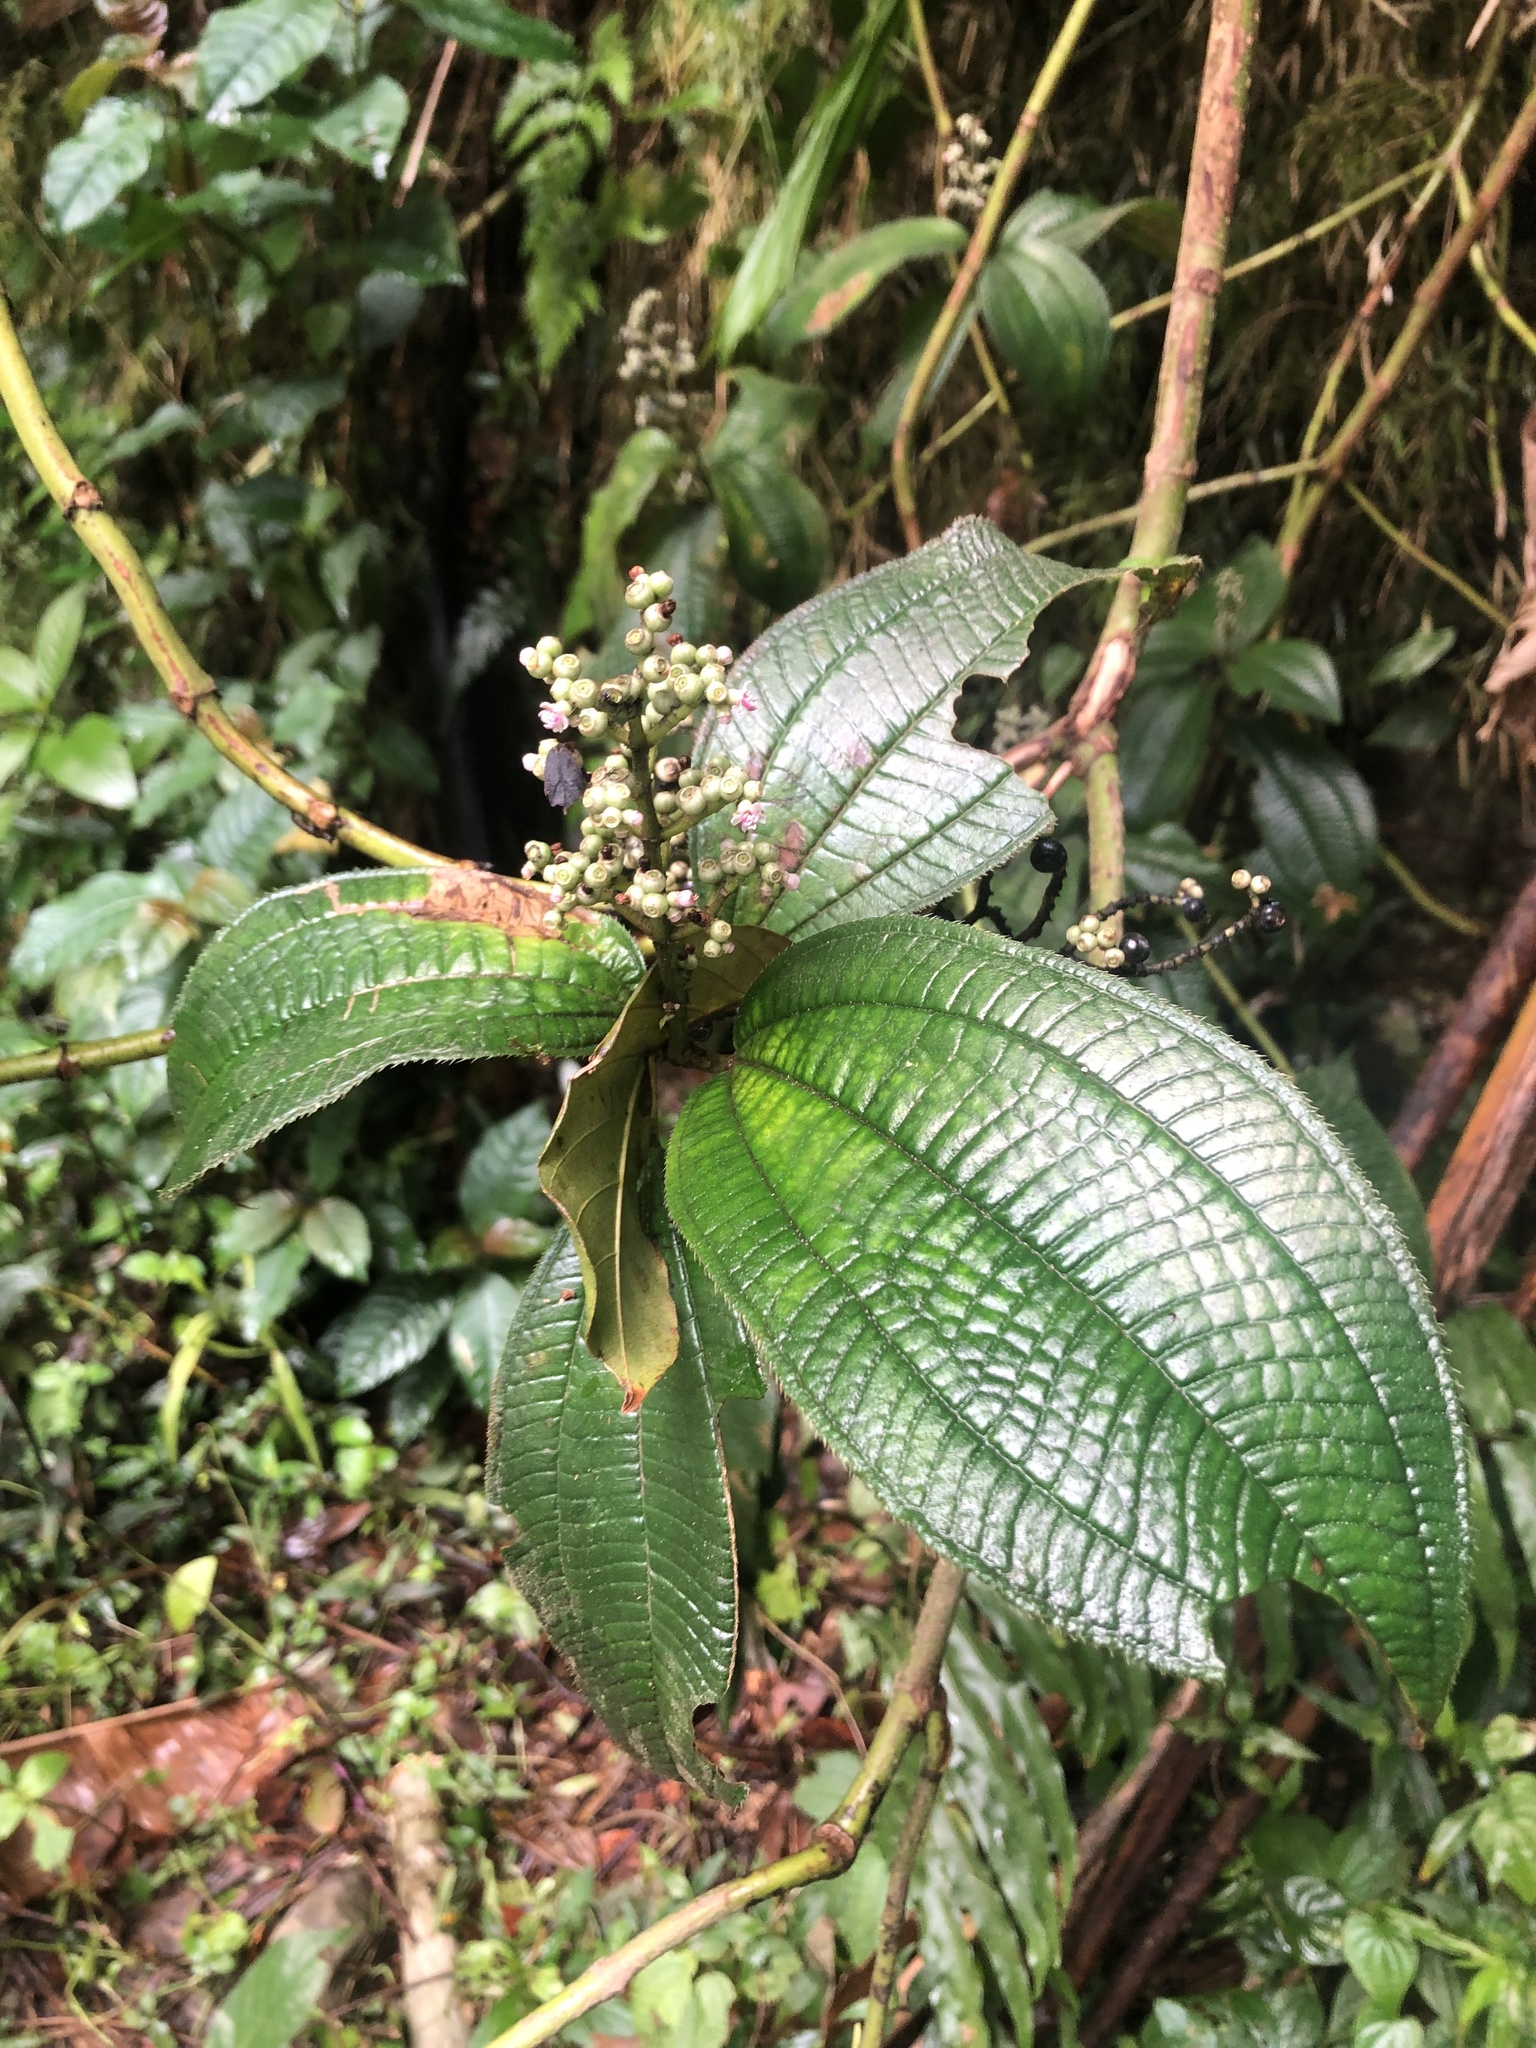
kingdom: Plantae
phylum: Tracheophyta
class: Magnoliopsida
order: Myrtales
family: Melastomataceae
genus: Miconia
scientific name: Miconia racemosa
